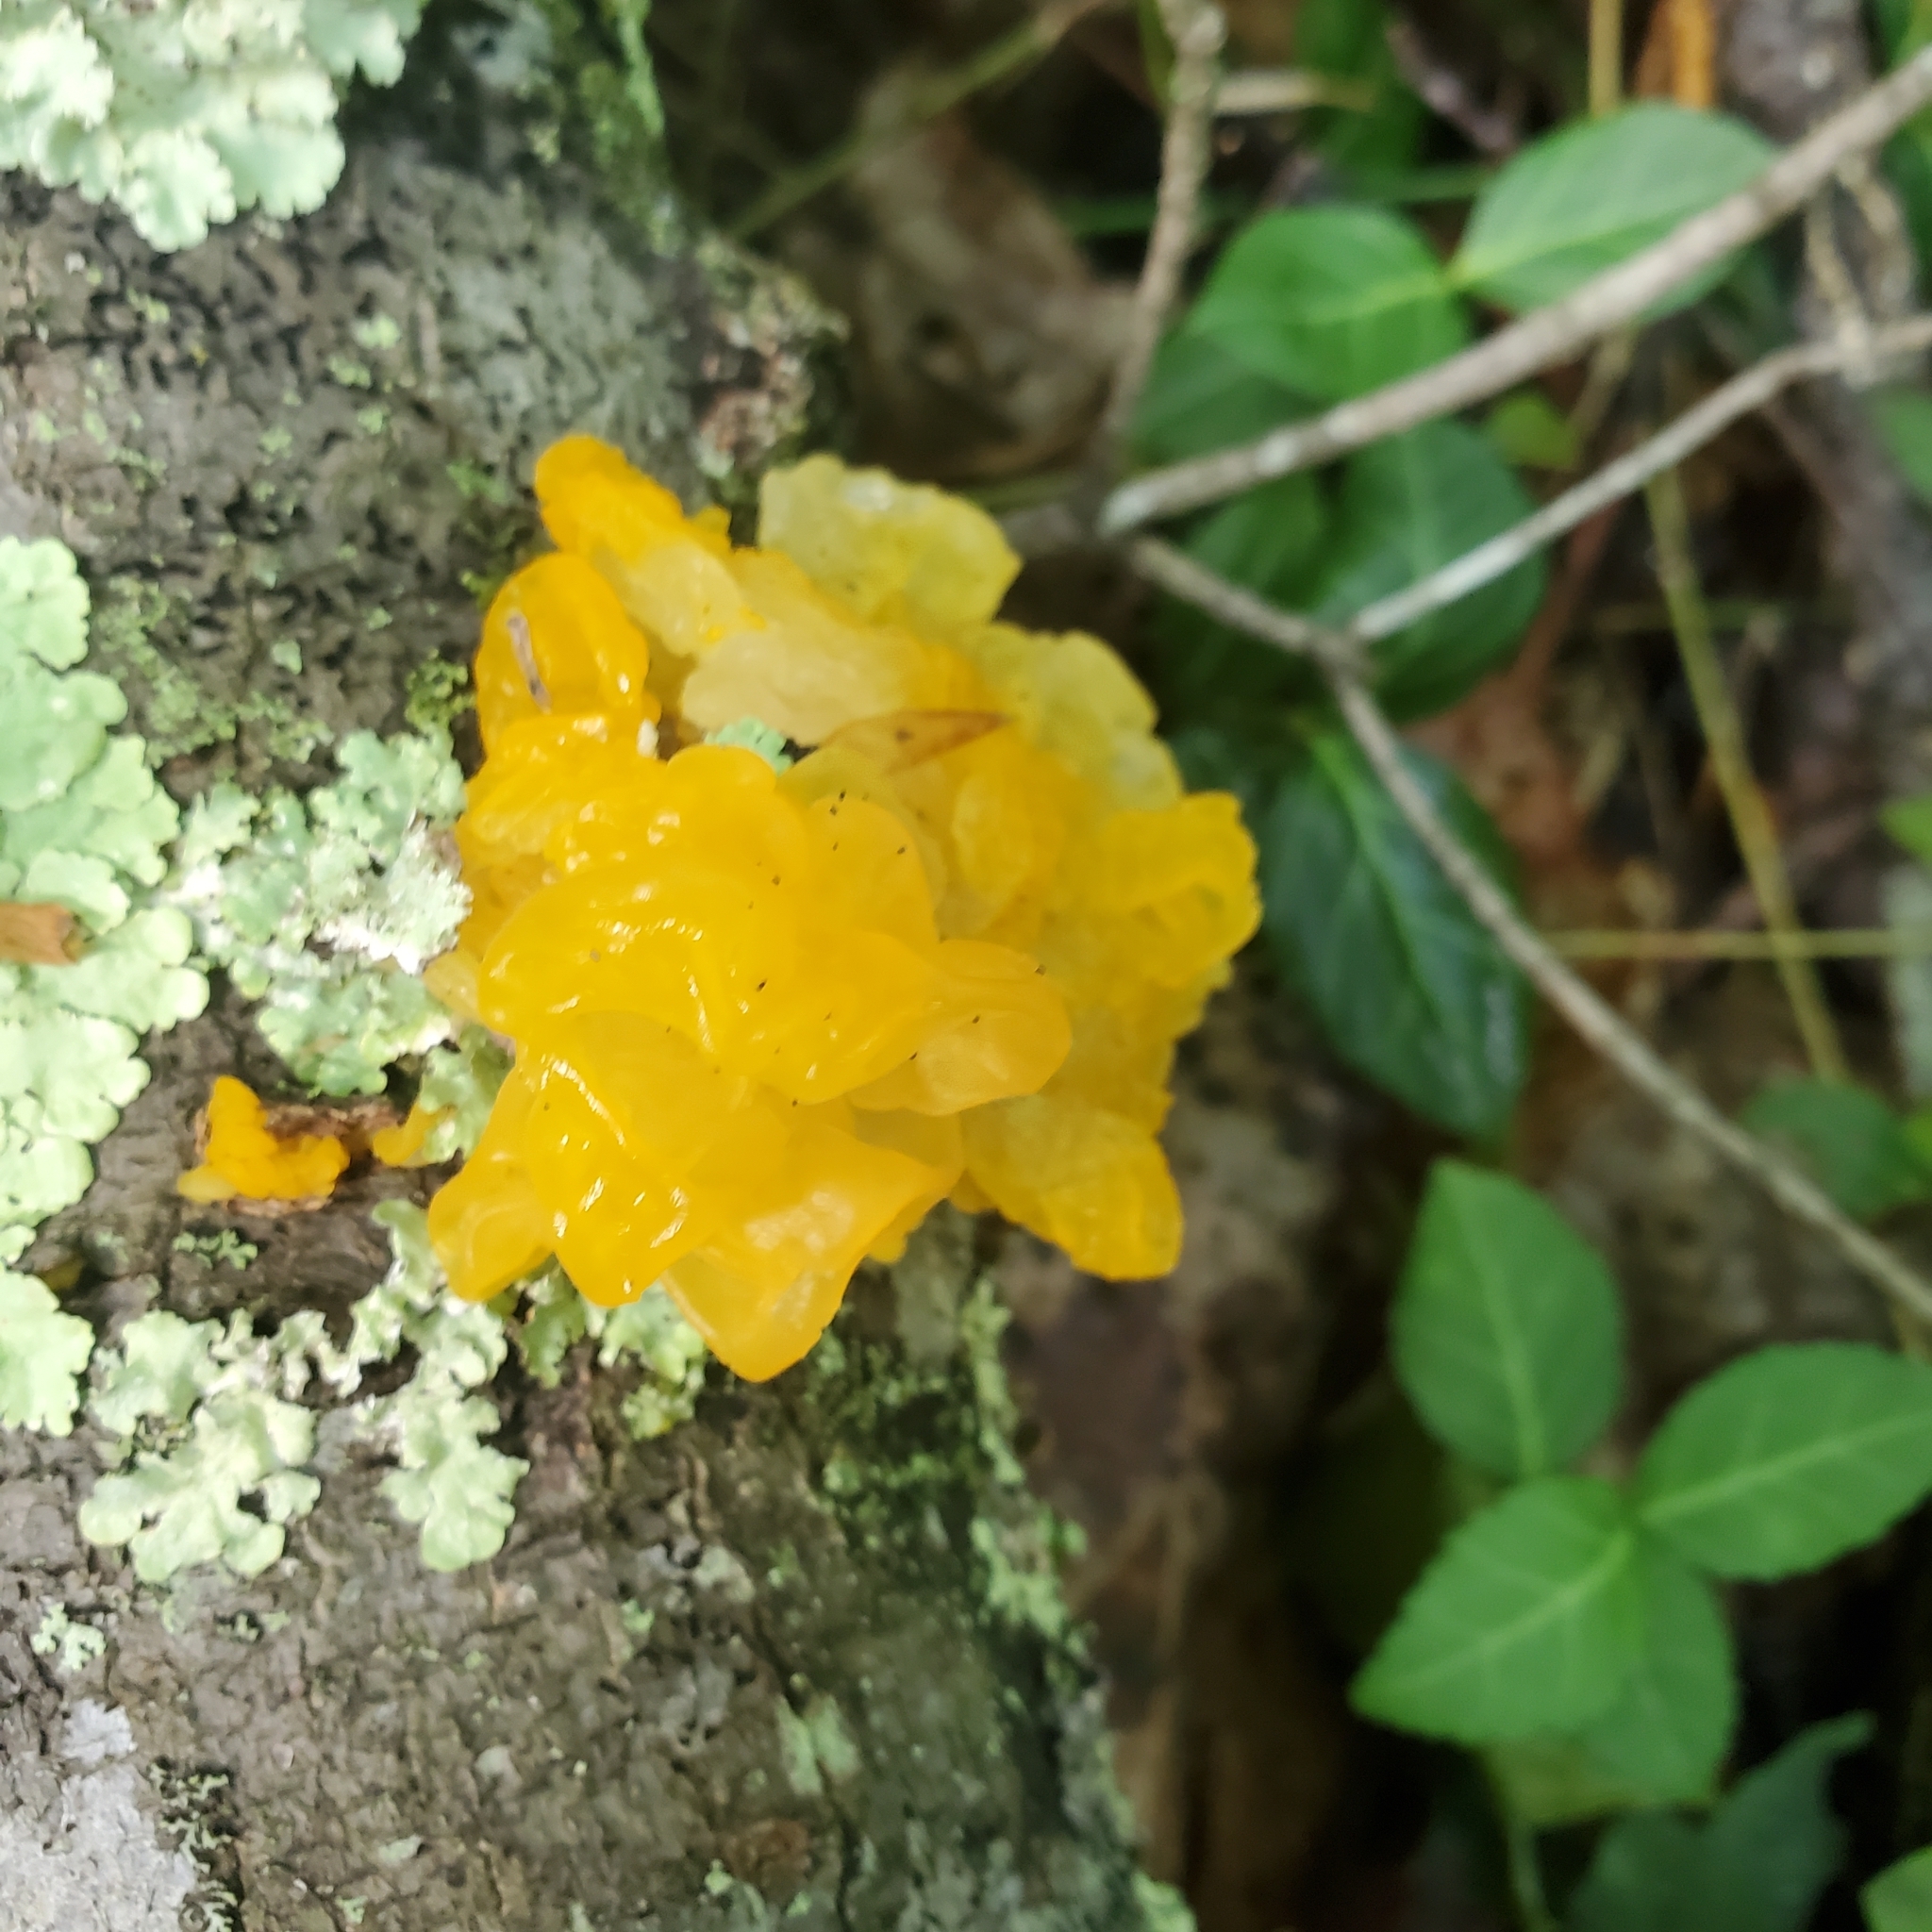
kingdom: Fungi
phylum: Basidiomycota
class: Tremellomycetes
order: Tremellales
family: Tremellaceae
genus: Tremella
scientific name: Tremella mesenterica
